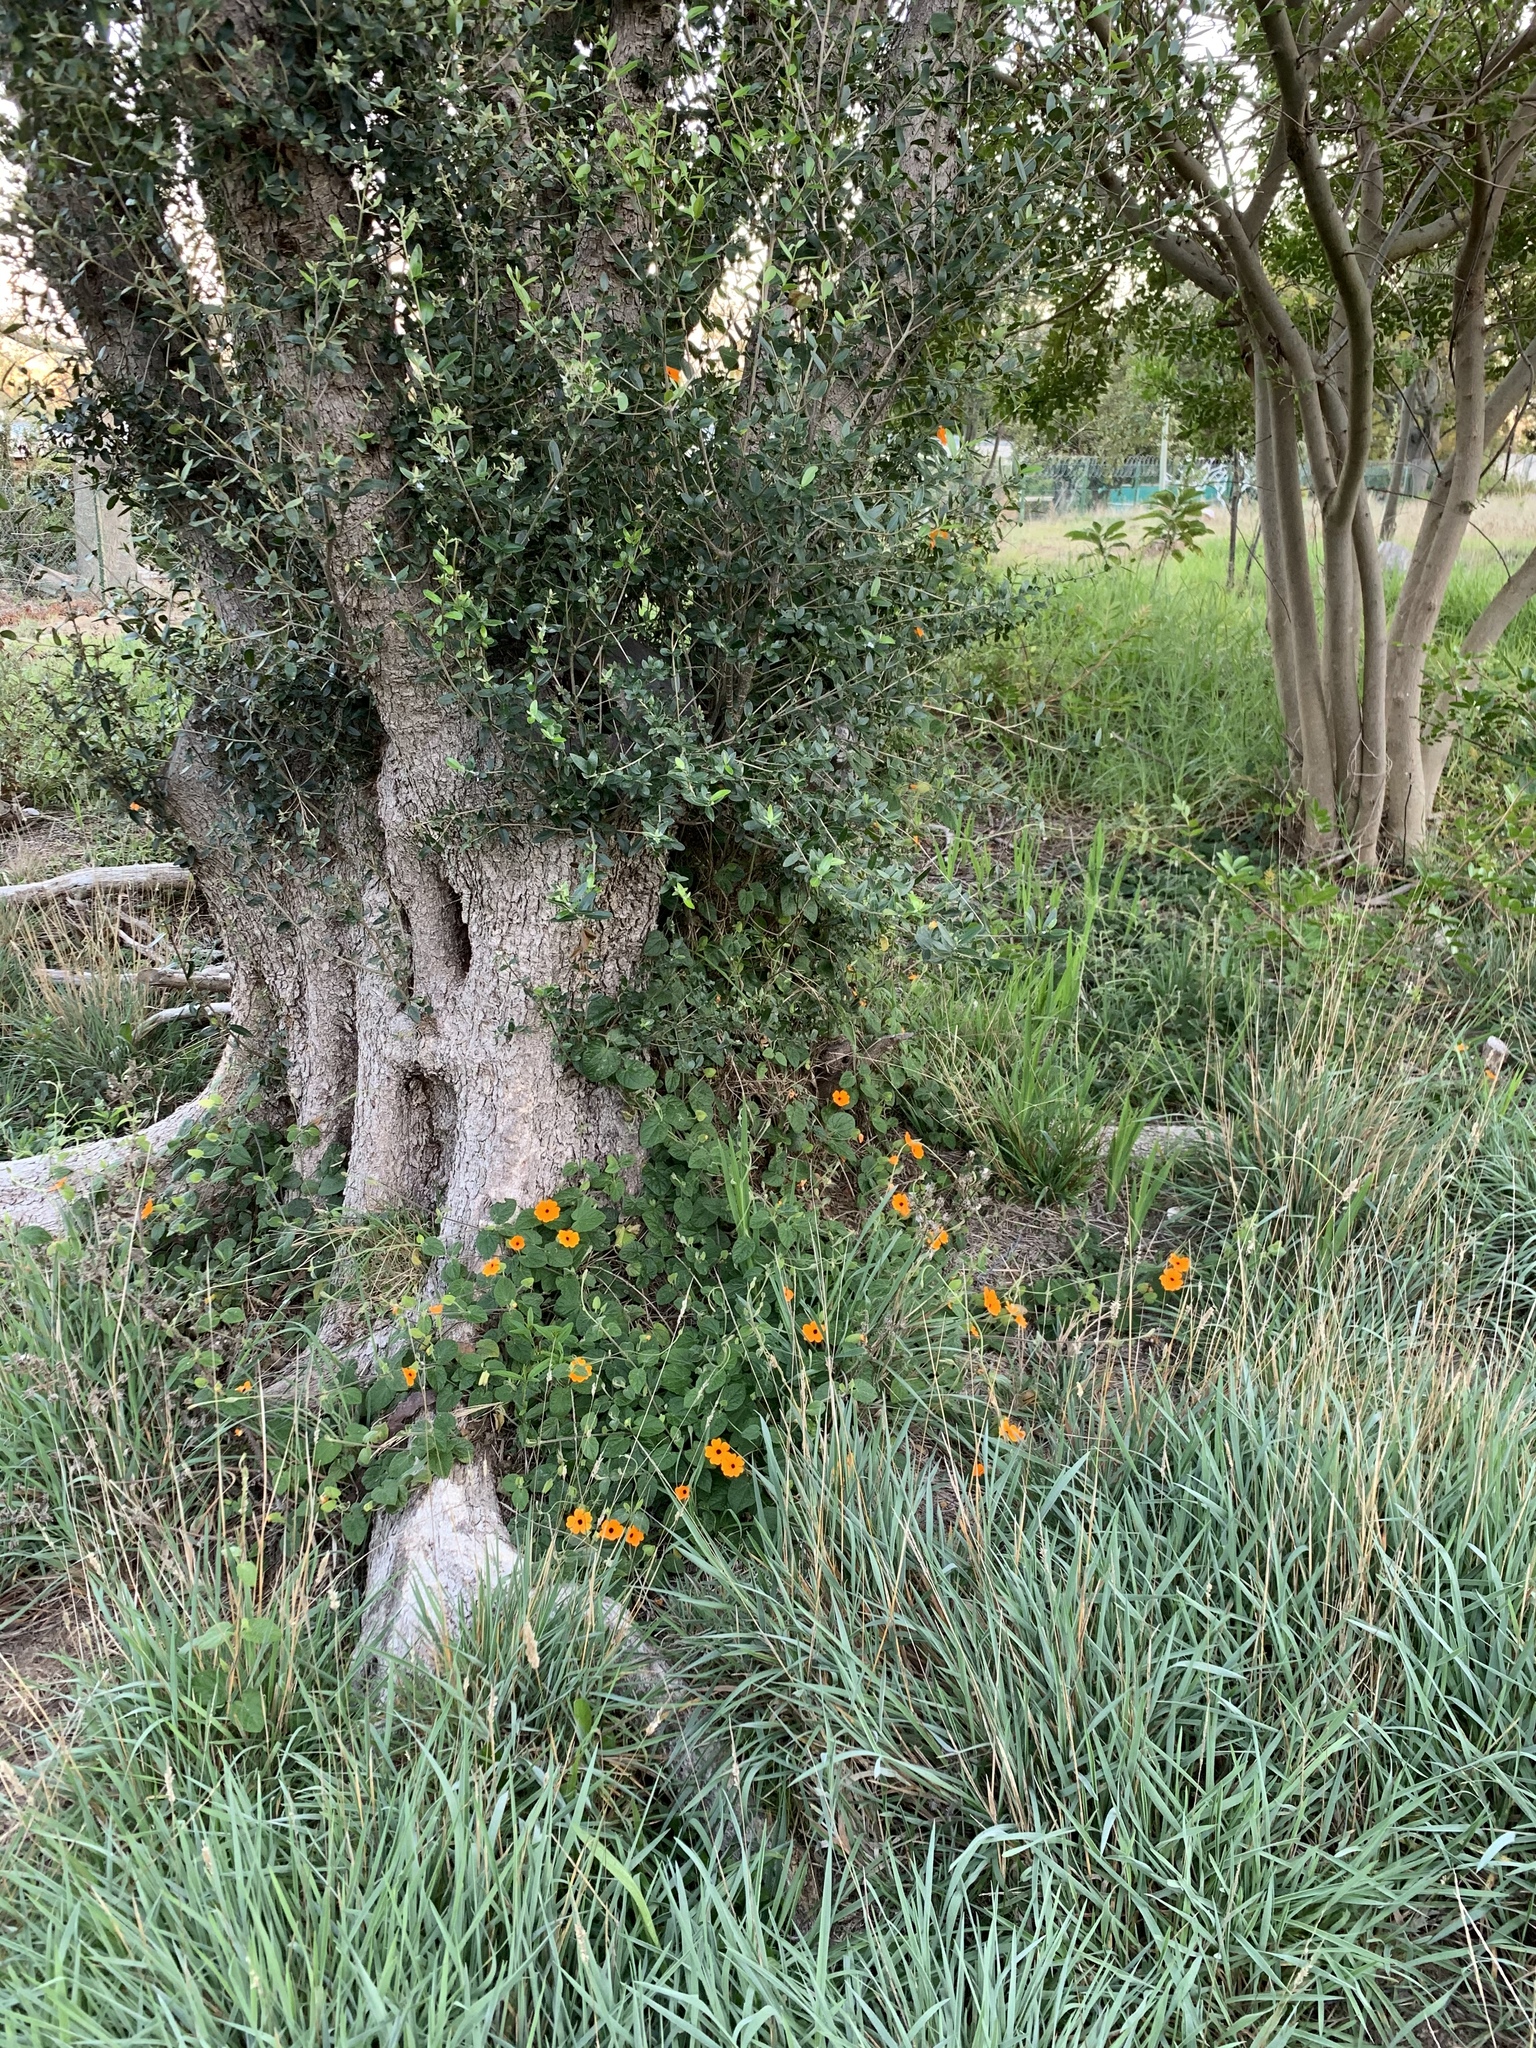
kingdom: Plantae
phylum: Tracheophyta
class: Magnoliopsida
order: Lamiales
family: Acanthaceae
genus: Thunbergia
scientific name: Thunbergia alata
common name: Blackeyed susan vine
